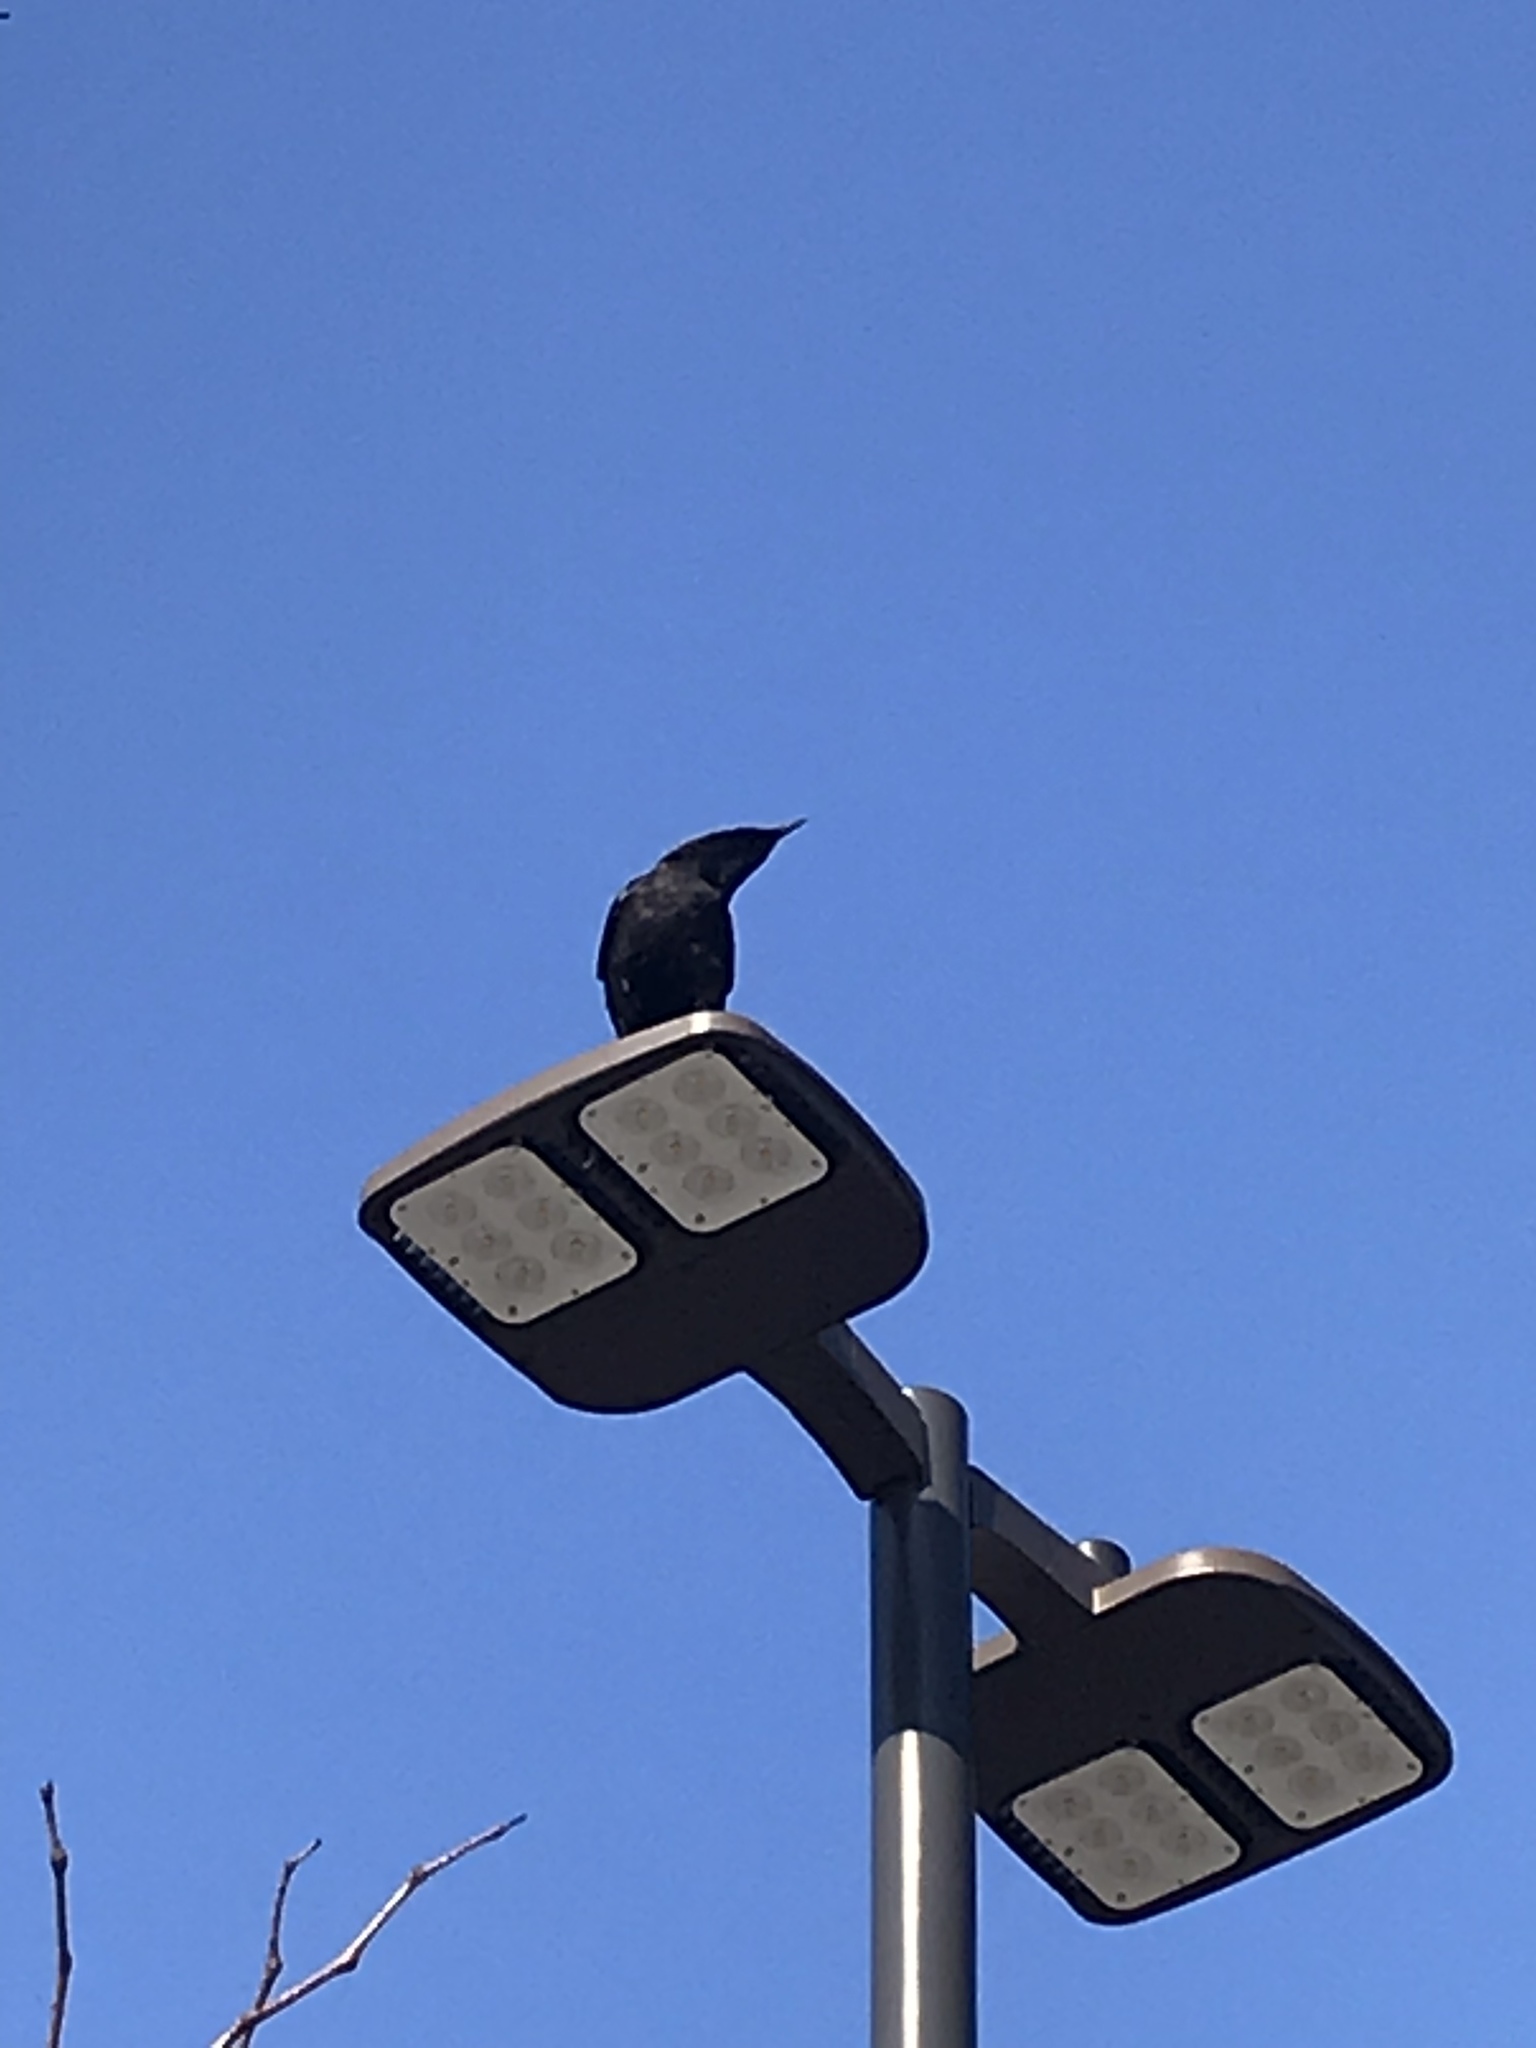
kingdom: Animalia
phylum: Chordata
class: Aves
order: Passeriformes
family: Corvidae
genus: Corvus
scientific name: Corvus
